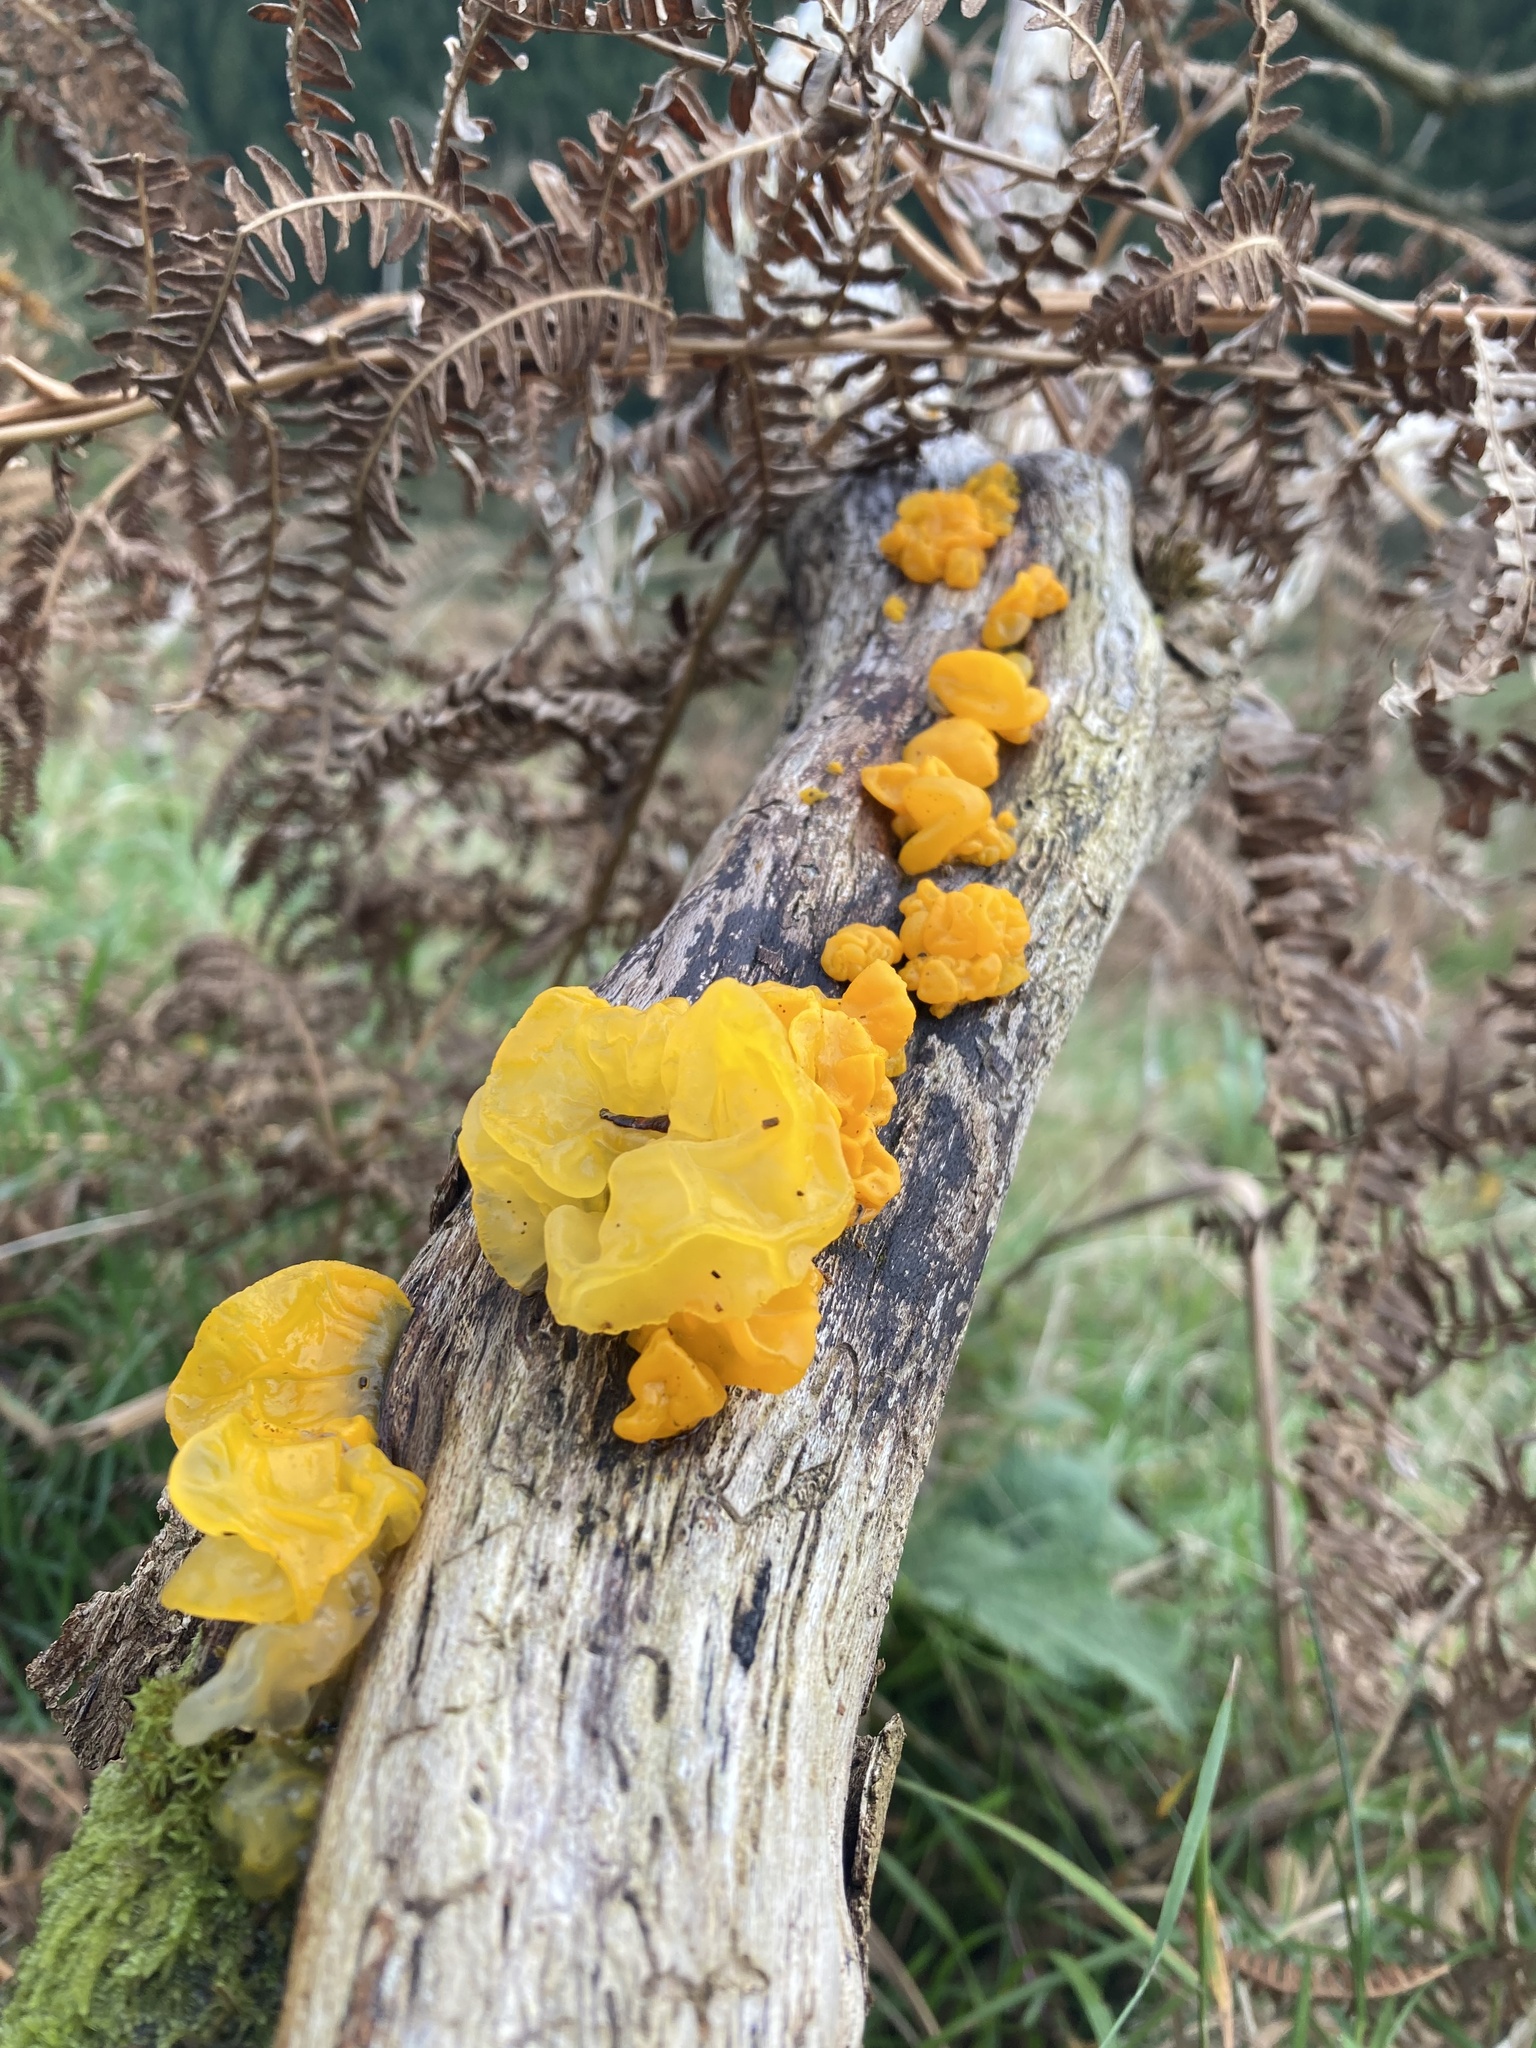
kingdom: Fungi
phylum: Basidiomycota
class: Tremellomycetes
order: Tremellales
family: Tremellaceae
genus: Tremella
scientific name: Tremella mesenterica
